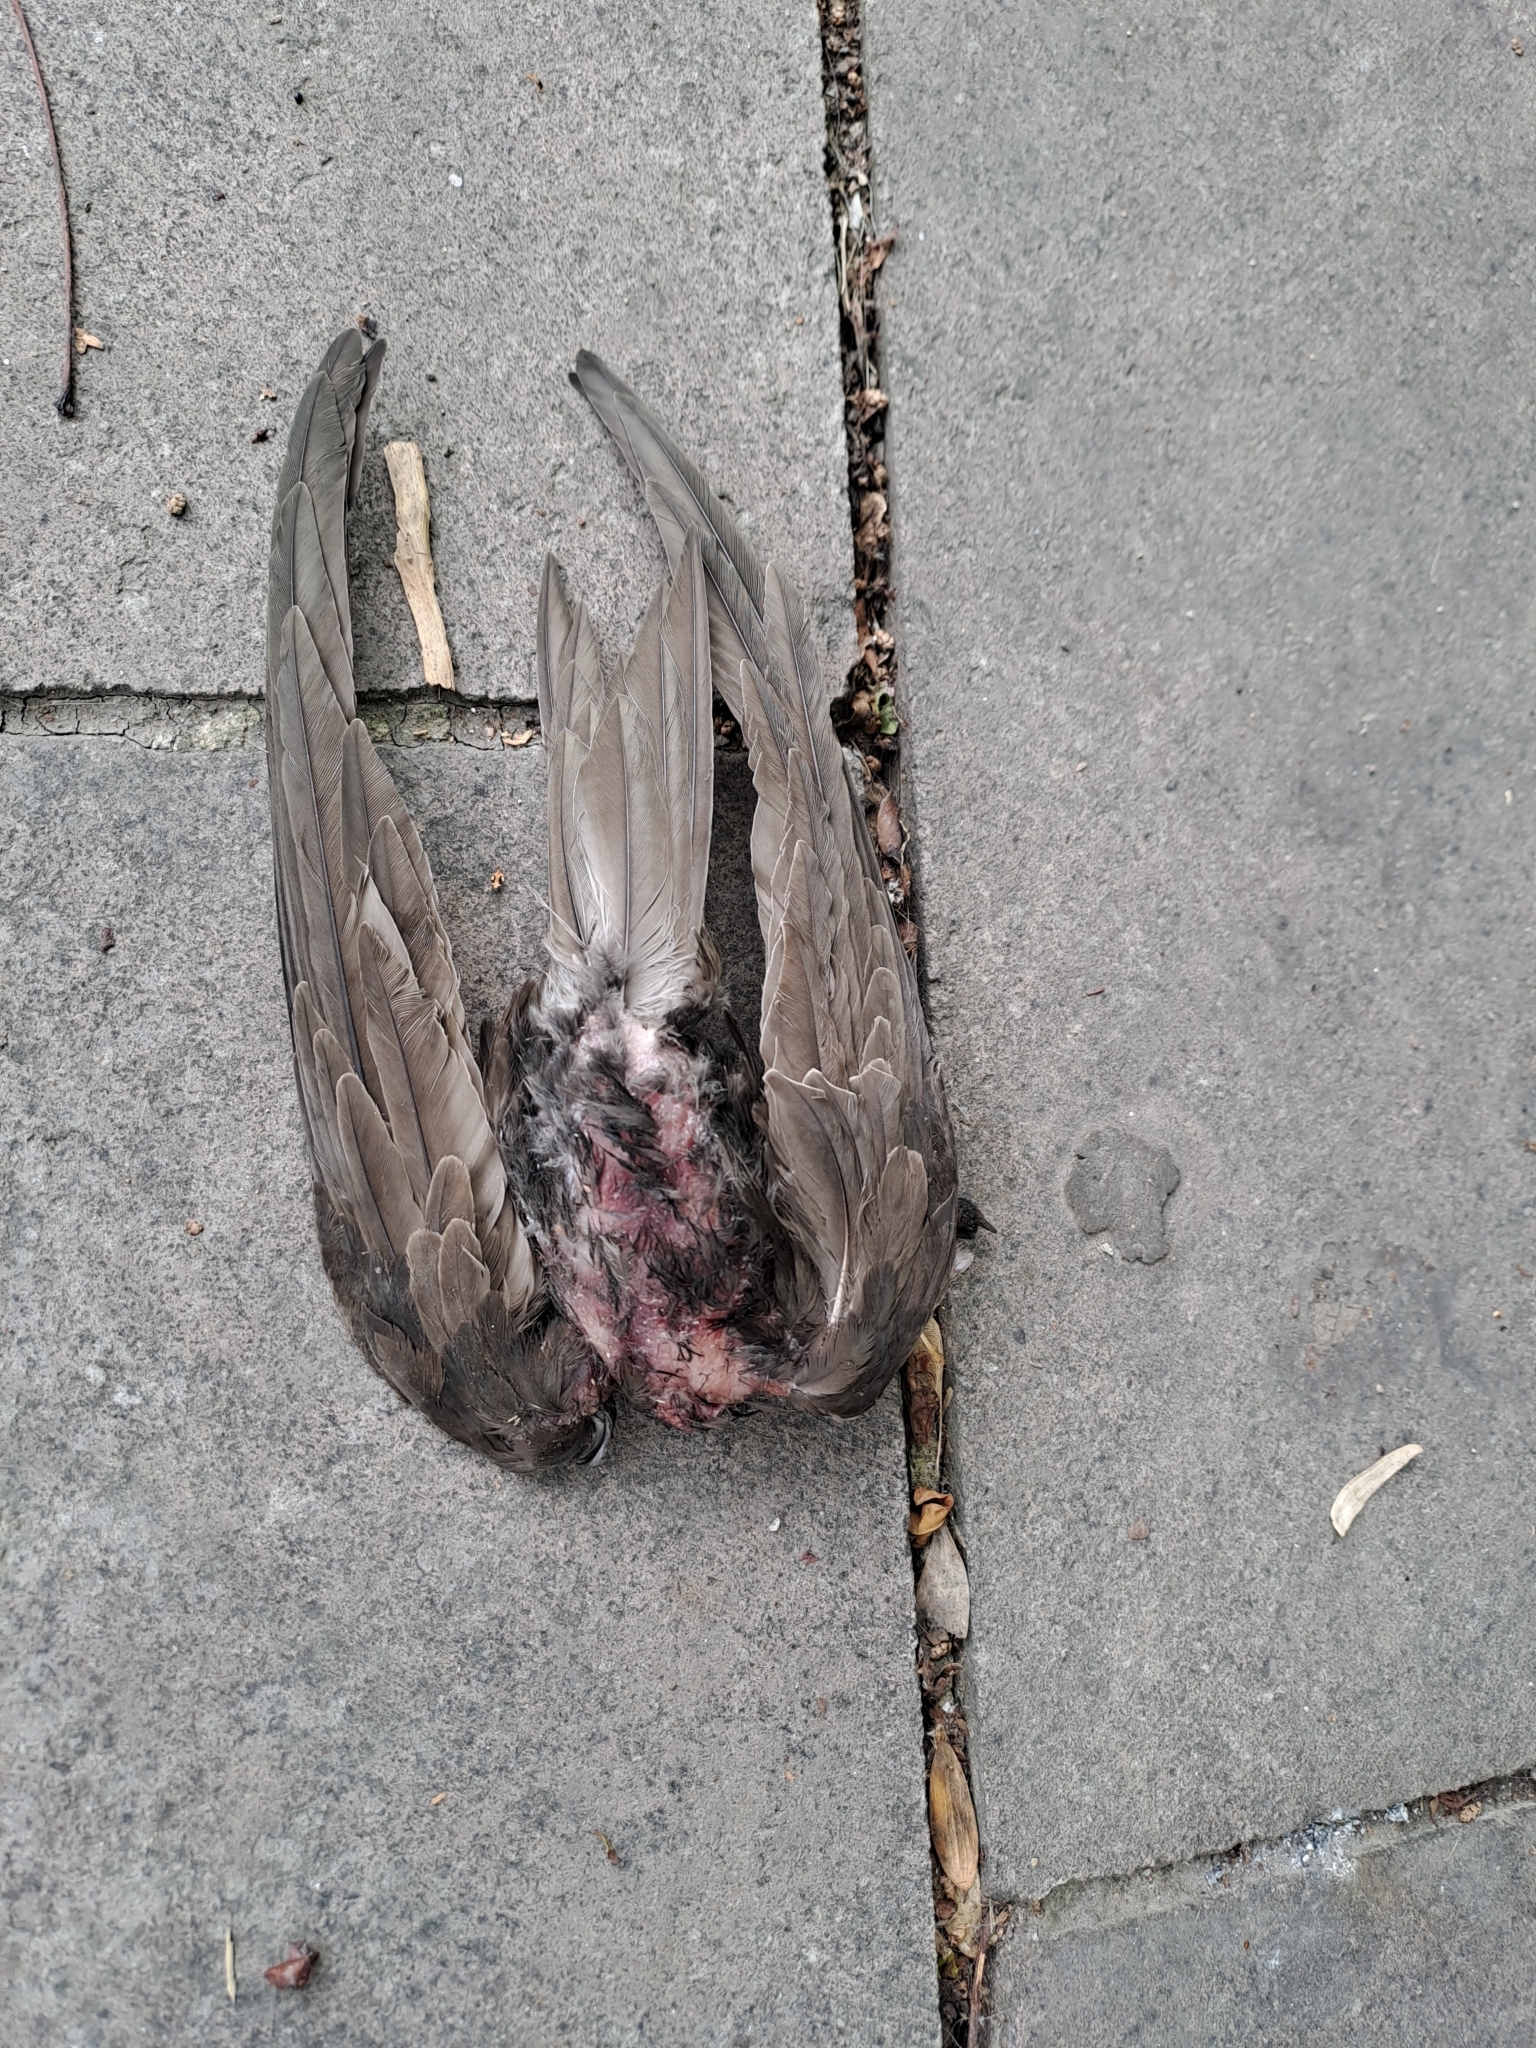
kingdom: Animalia
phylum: Chordata
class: Aves
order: Apodiformes
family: Apodidae
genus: Apus
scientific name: Apus apus
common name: Common swift
